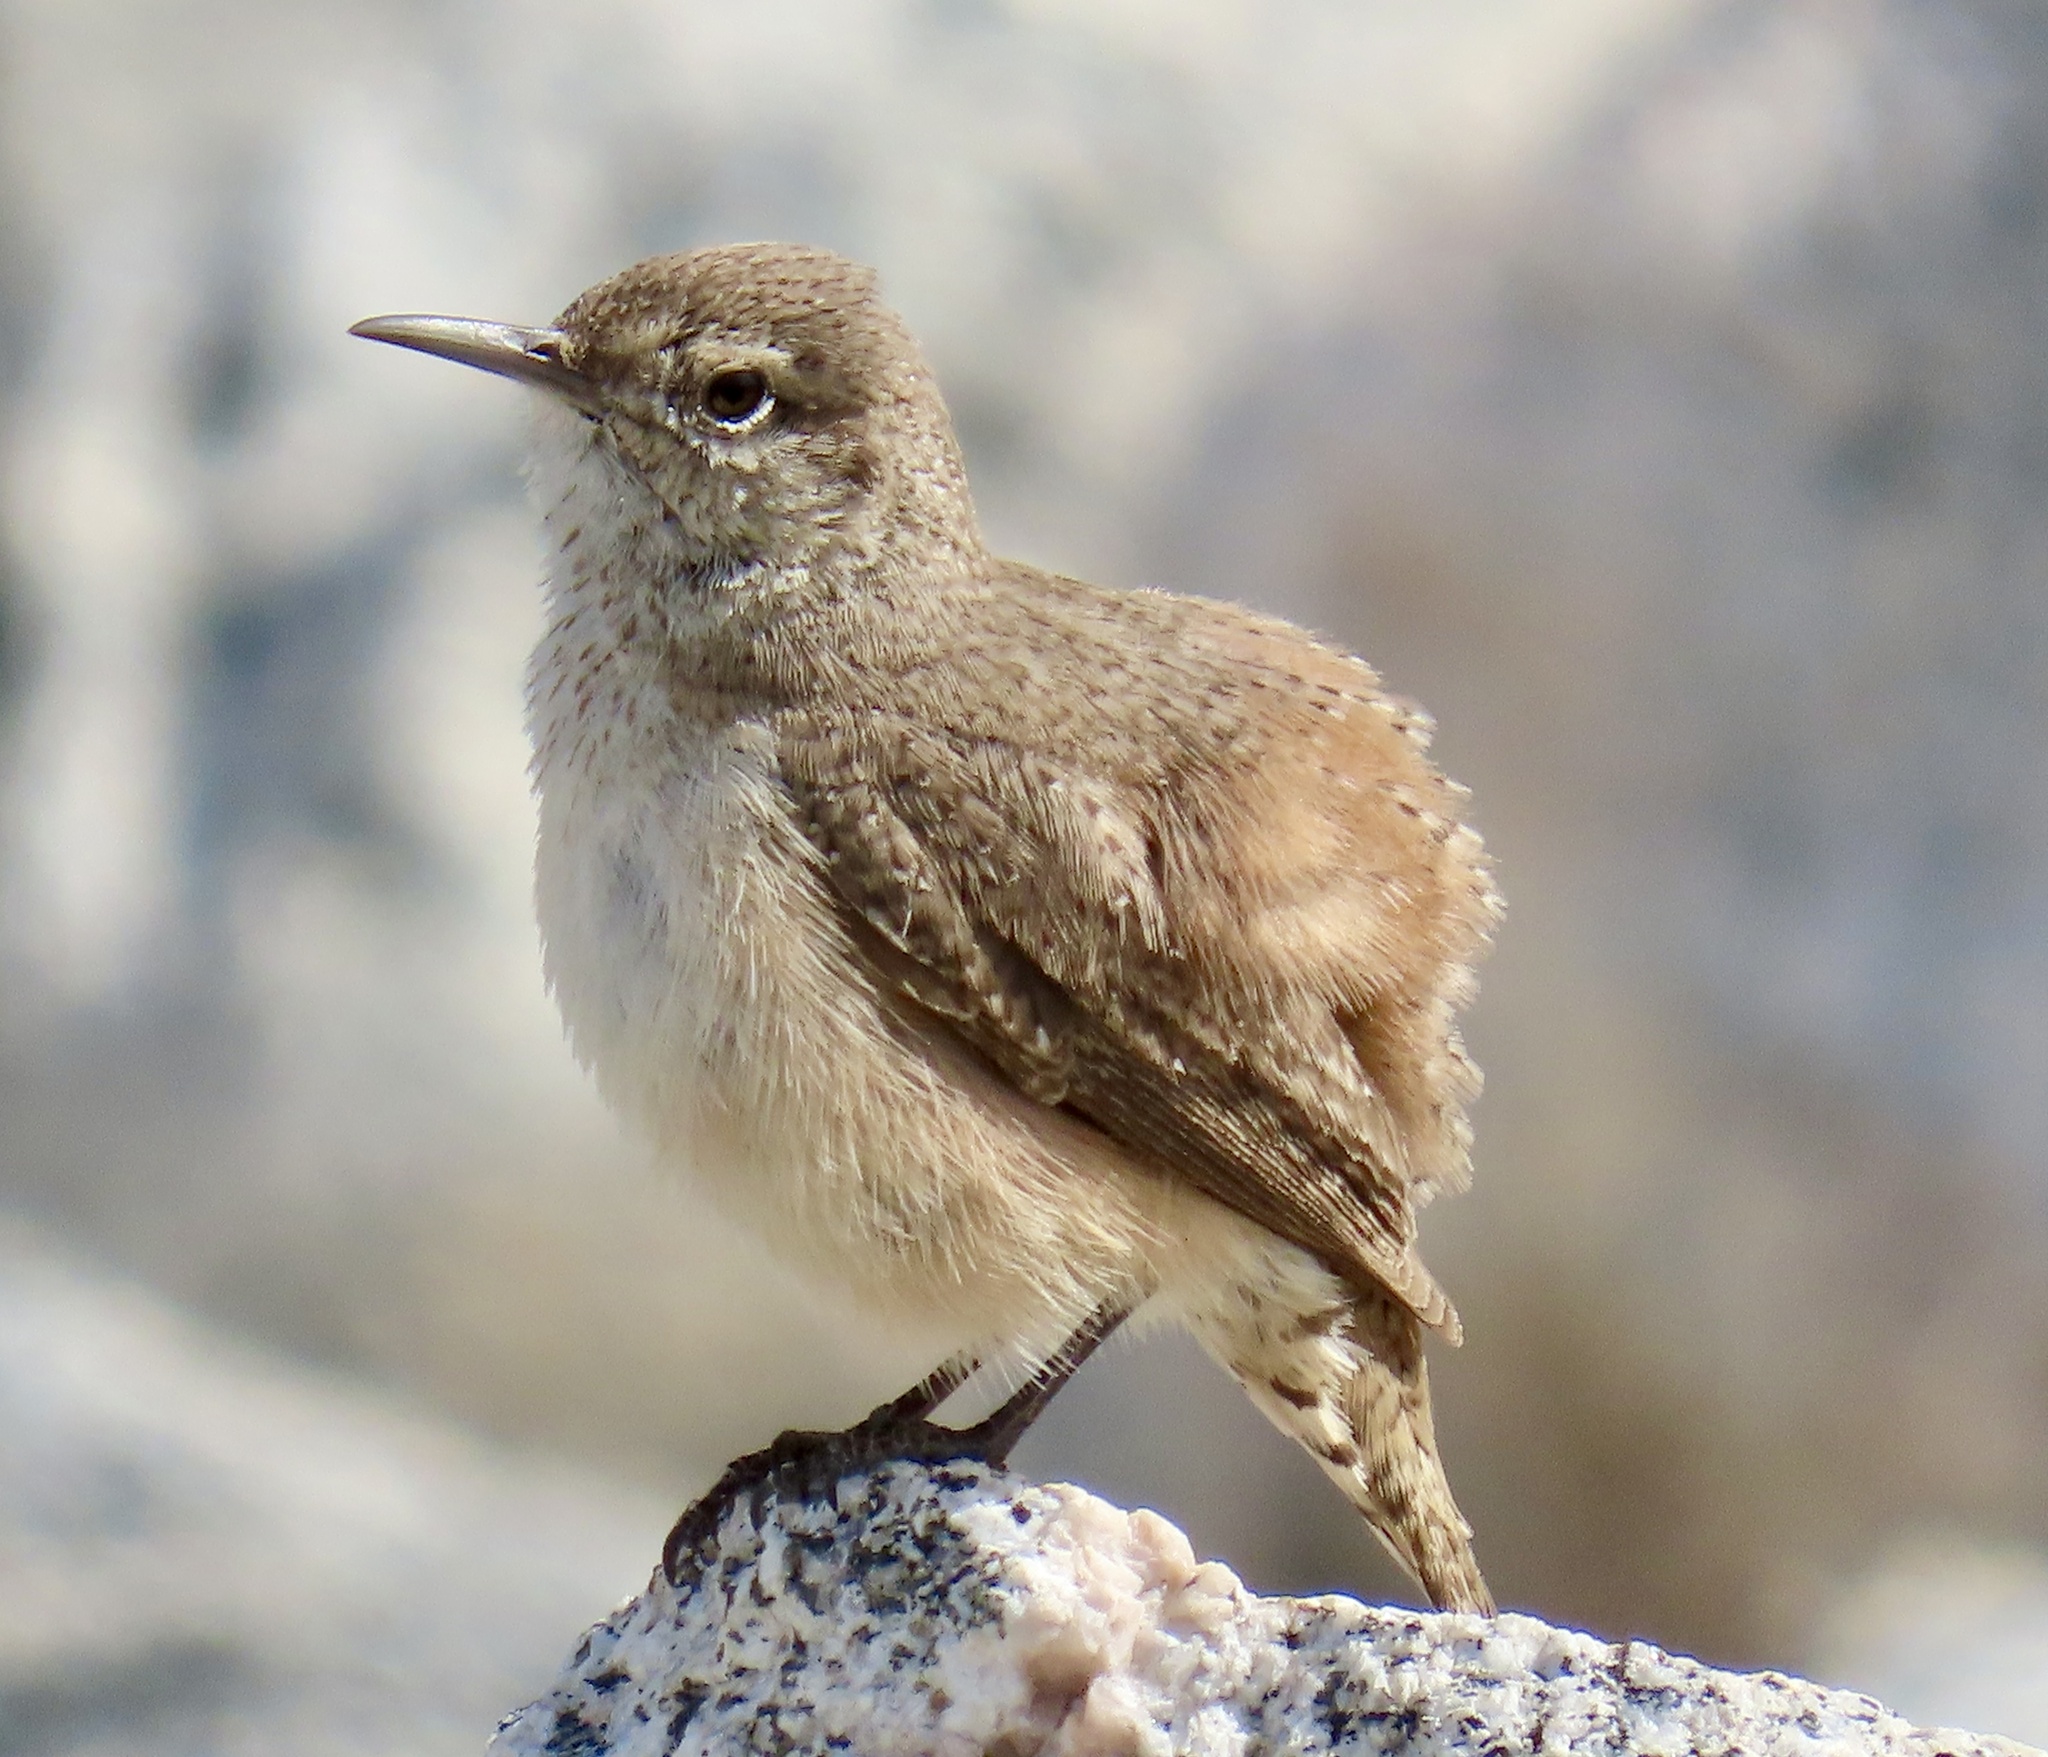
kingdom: Animalia
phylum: Chordata
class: Aves
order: Passeriformes
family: Troglodytidae
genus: Salpinctes
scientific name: Salpinctes obsoletus
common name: Rock wren
